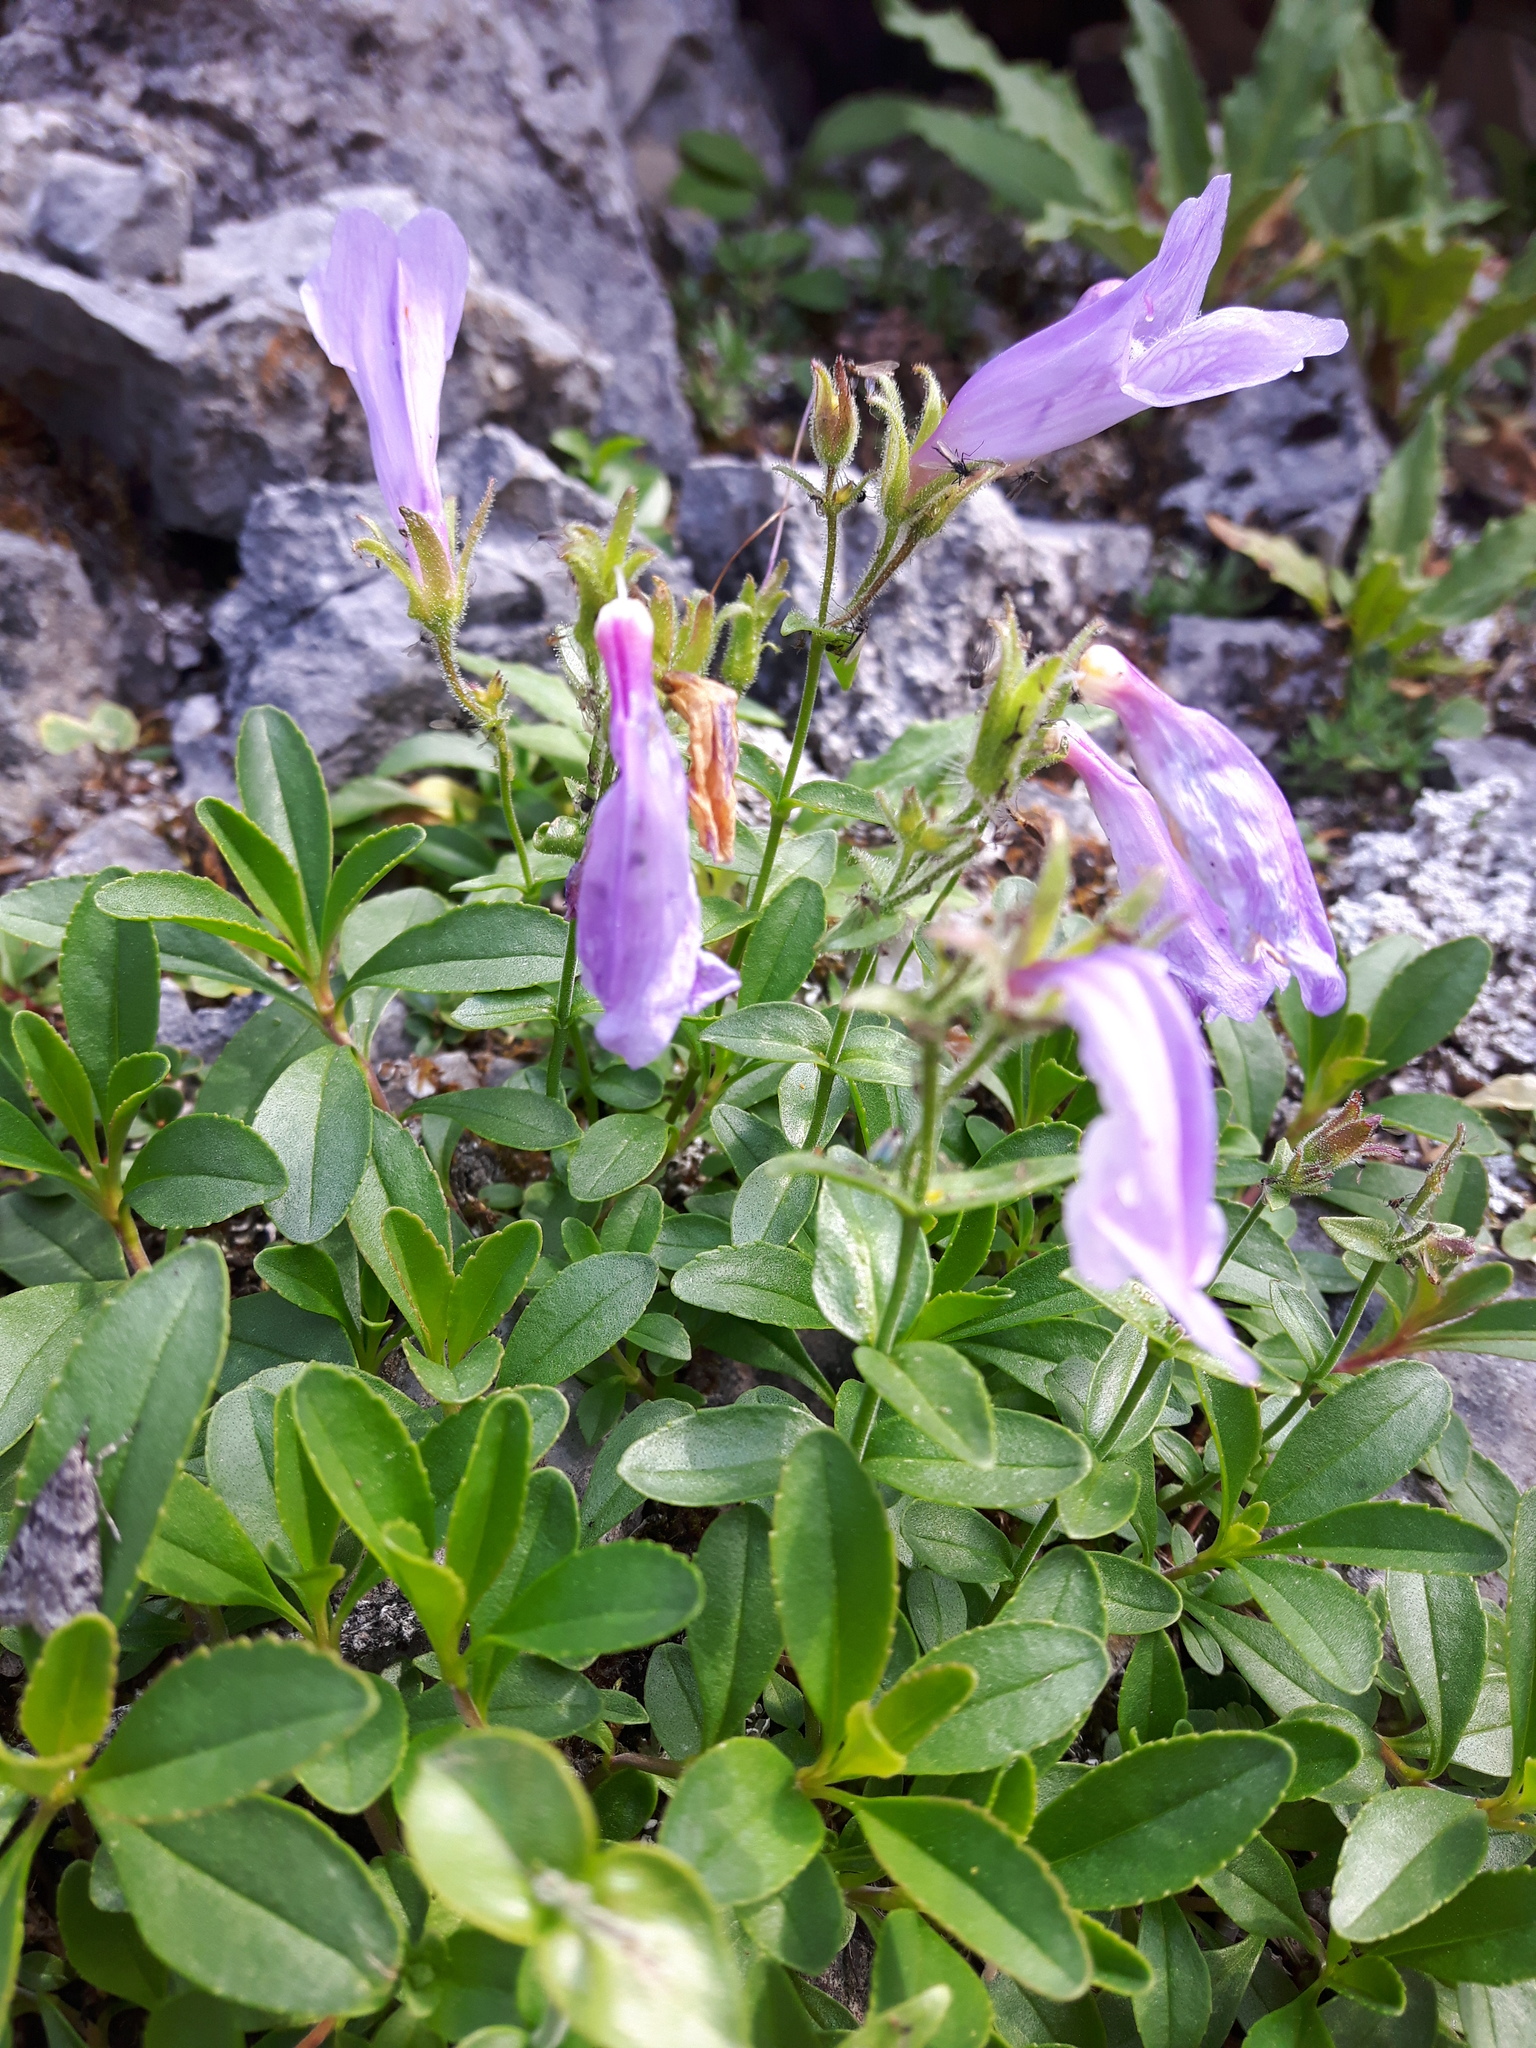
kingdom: Plantae
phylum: Tracheophyta
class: Magnoliopsida
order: Lamiales
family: Plantaginaceae
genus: Penstemon
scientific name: Penstemon ellipticus
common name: Alpine beardtongue
